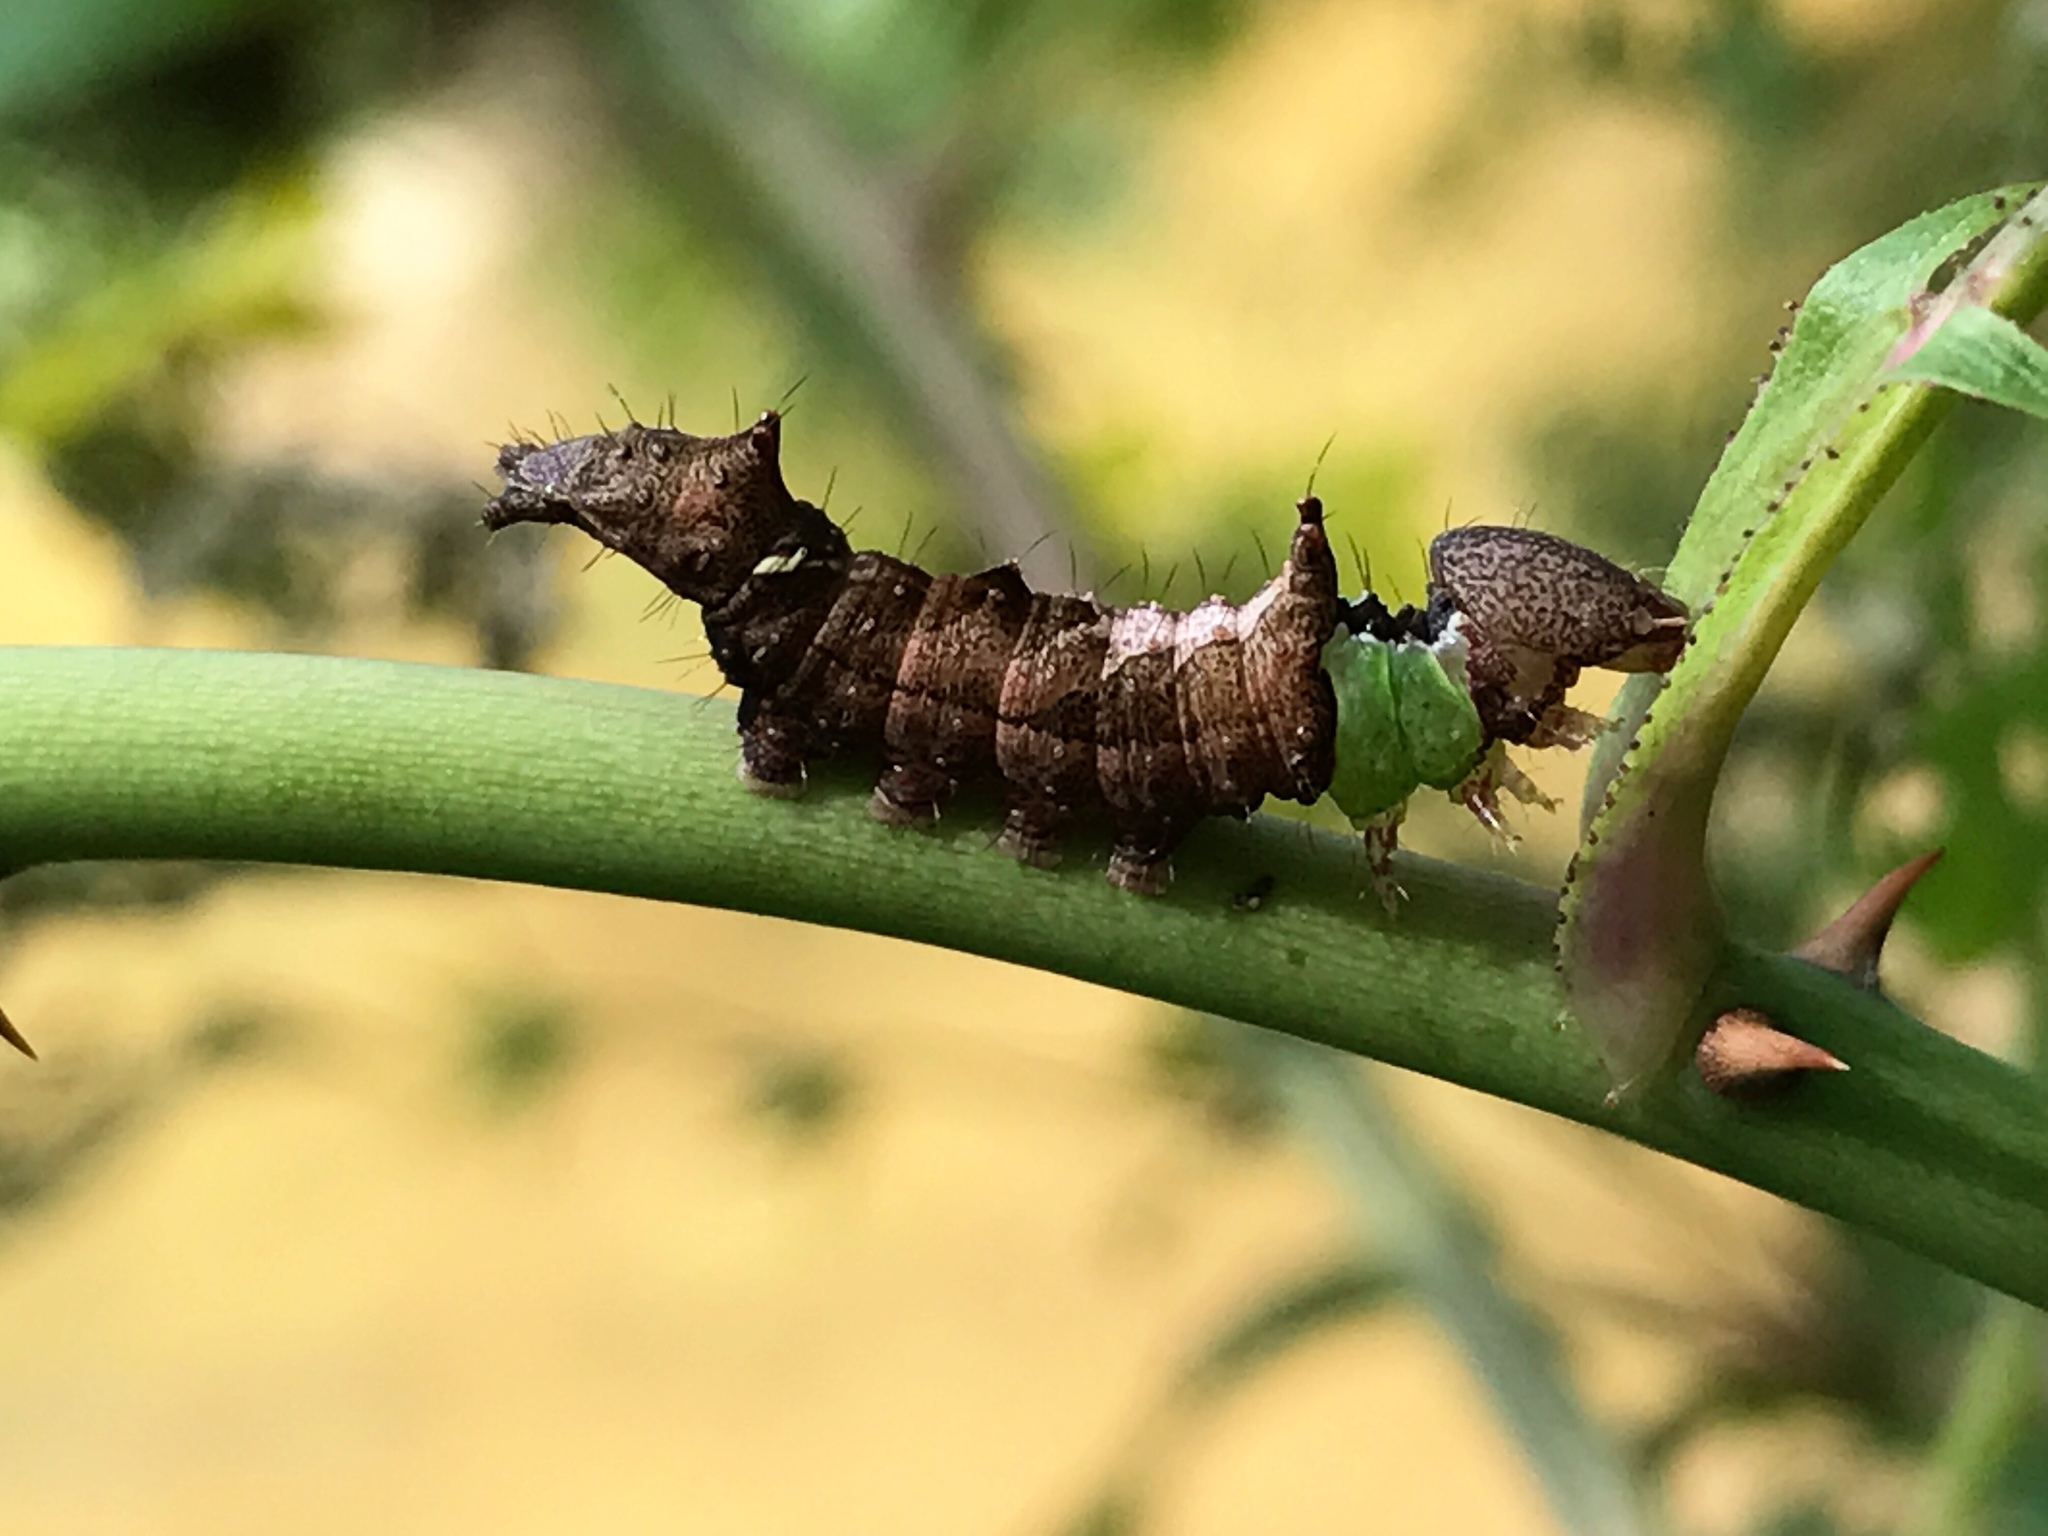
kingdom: Animalia
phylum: Arthropoda
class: Insecta
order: Lepidoptera
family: Notodontidae
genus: Schizura
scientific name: Schizura
